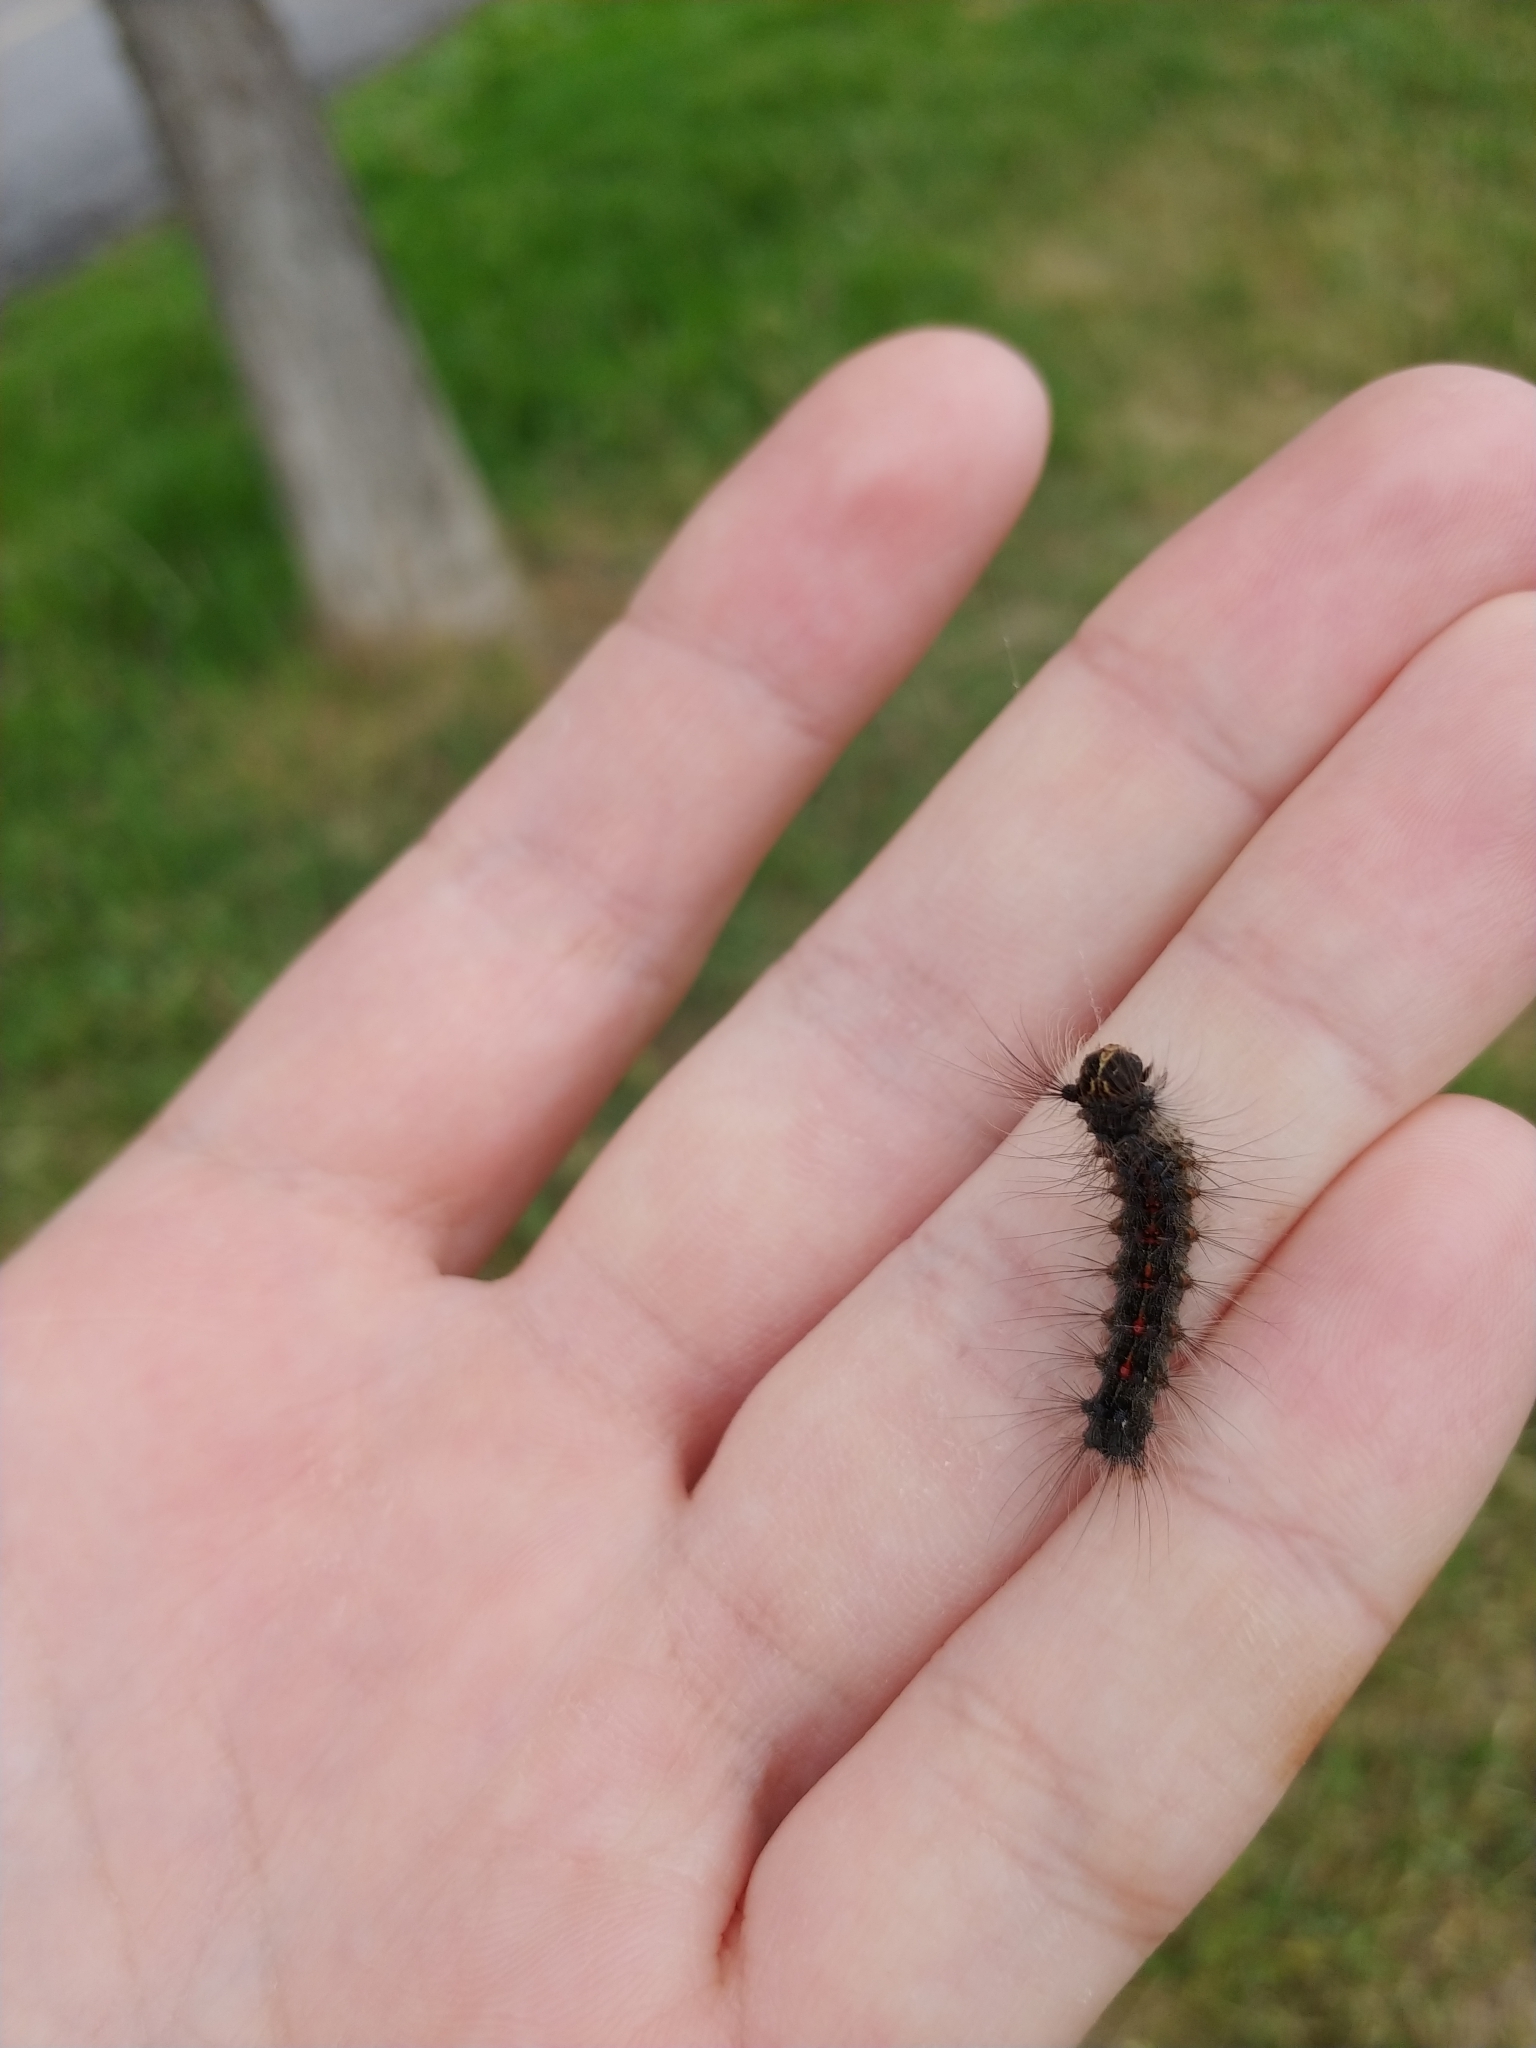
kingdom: Animalia
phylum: Arthropoda
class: Insecta
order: Lepidoptera
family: Erebidae
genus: Lymantria
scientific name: Lymantria dispar
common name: Gypsy moth
